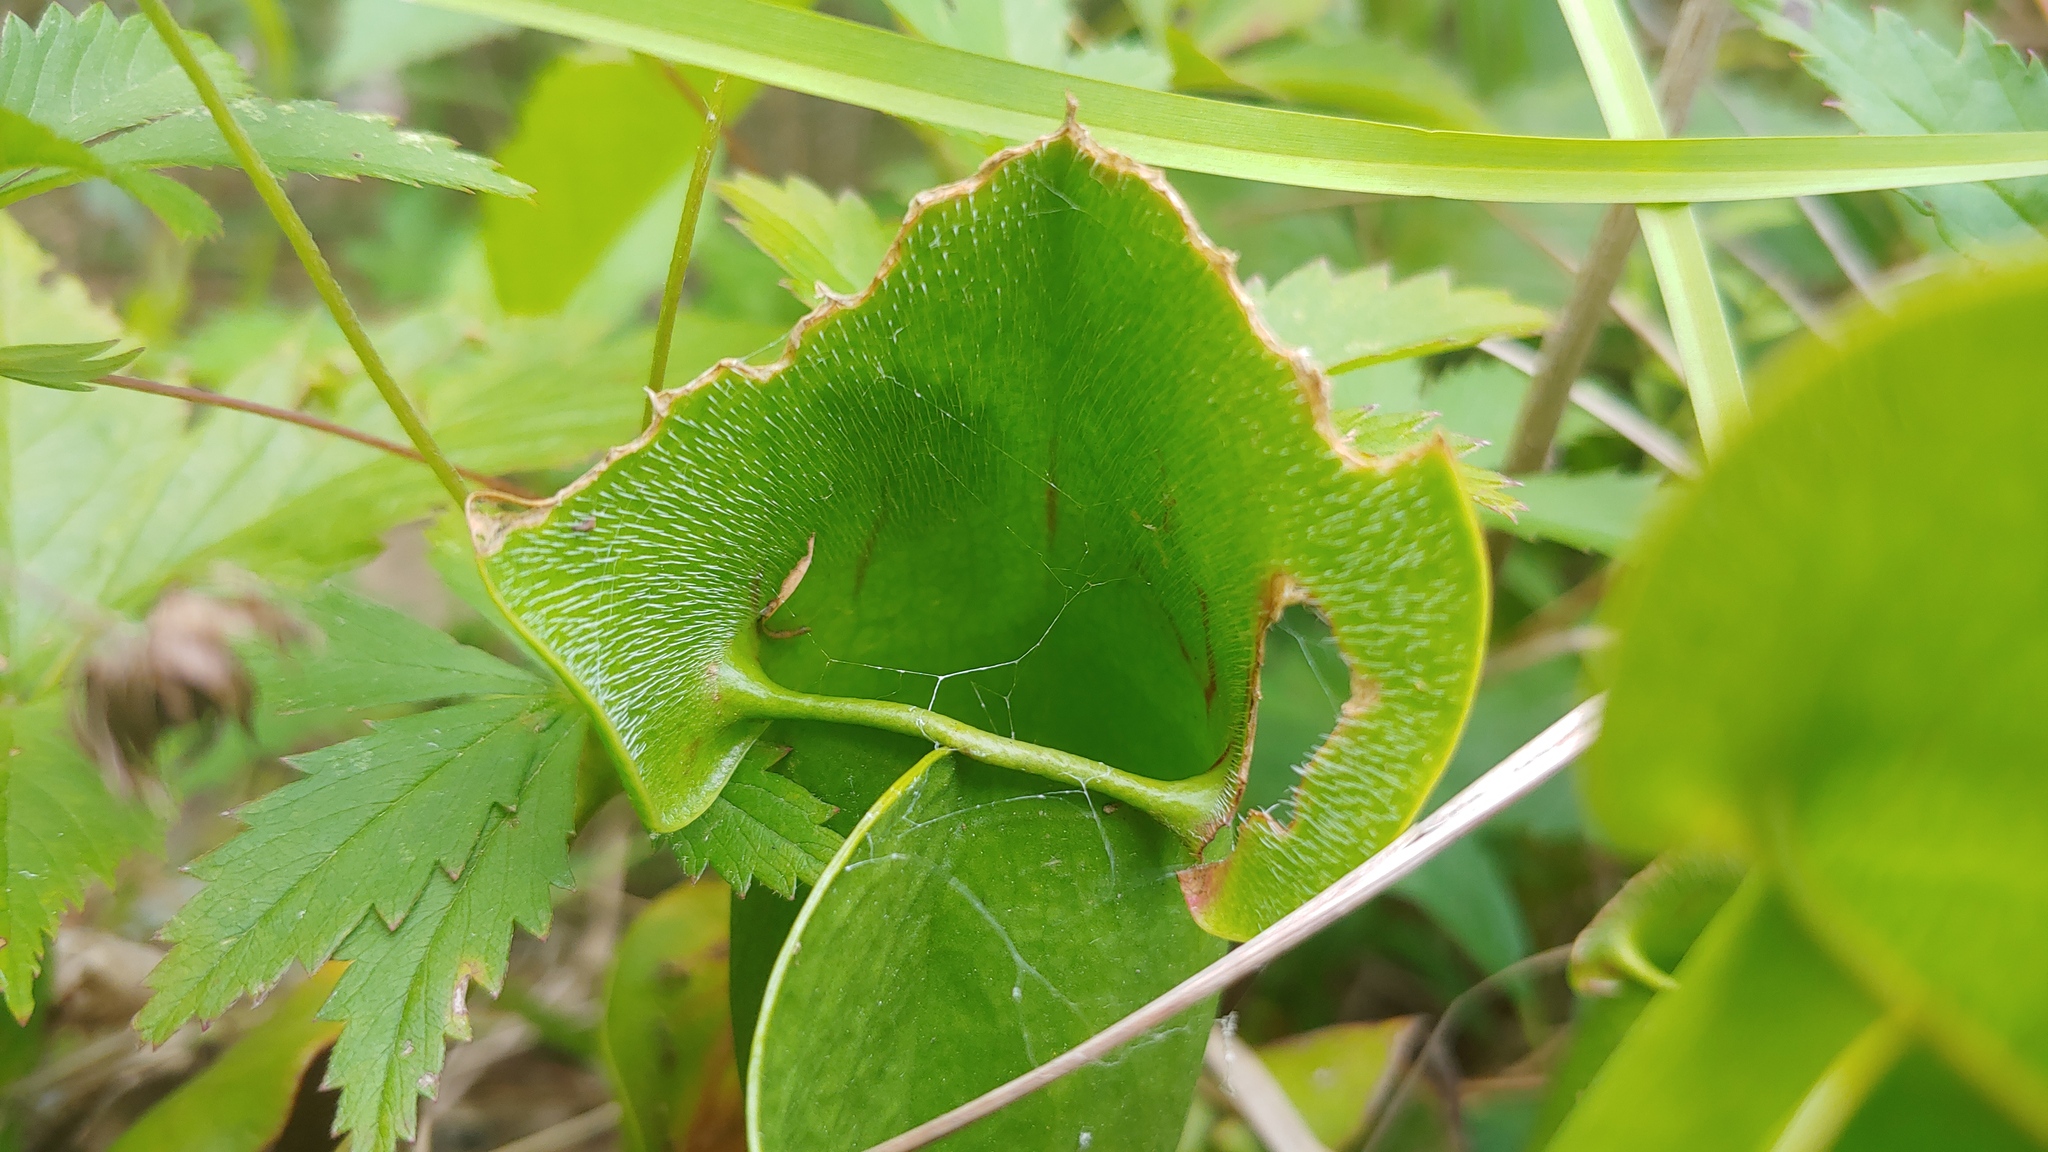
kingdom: Plantae
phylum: Tracheophyta
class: Magnoliopsida
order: Ericales
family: Sarraceniaceae
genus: Sarracenia
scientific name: Sarracenia purpurea
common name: Pitcherplant
